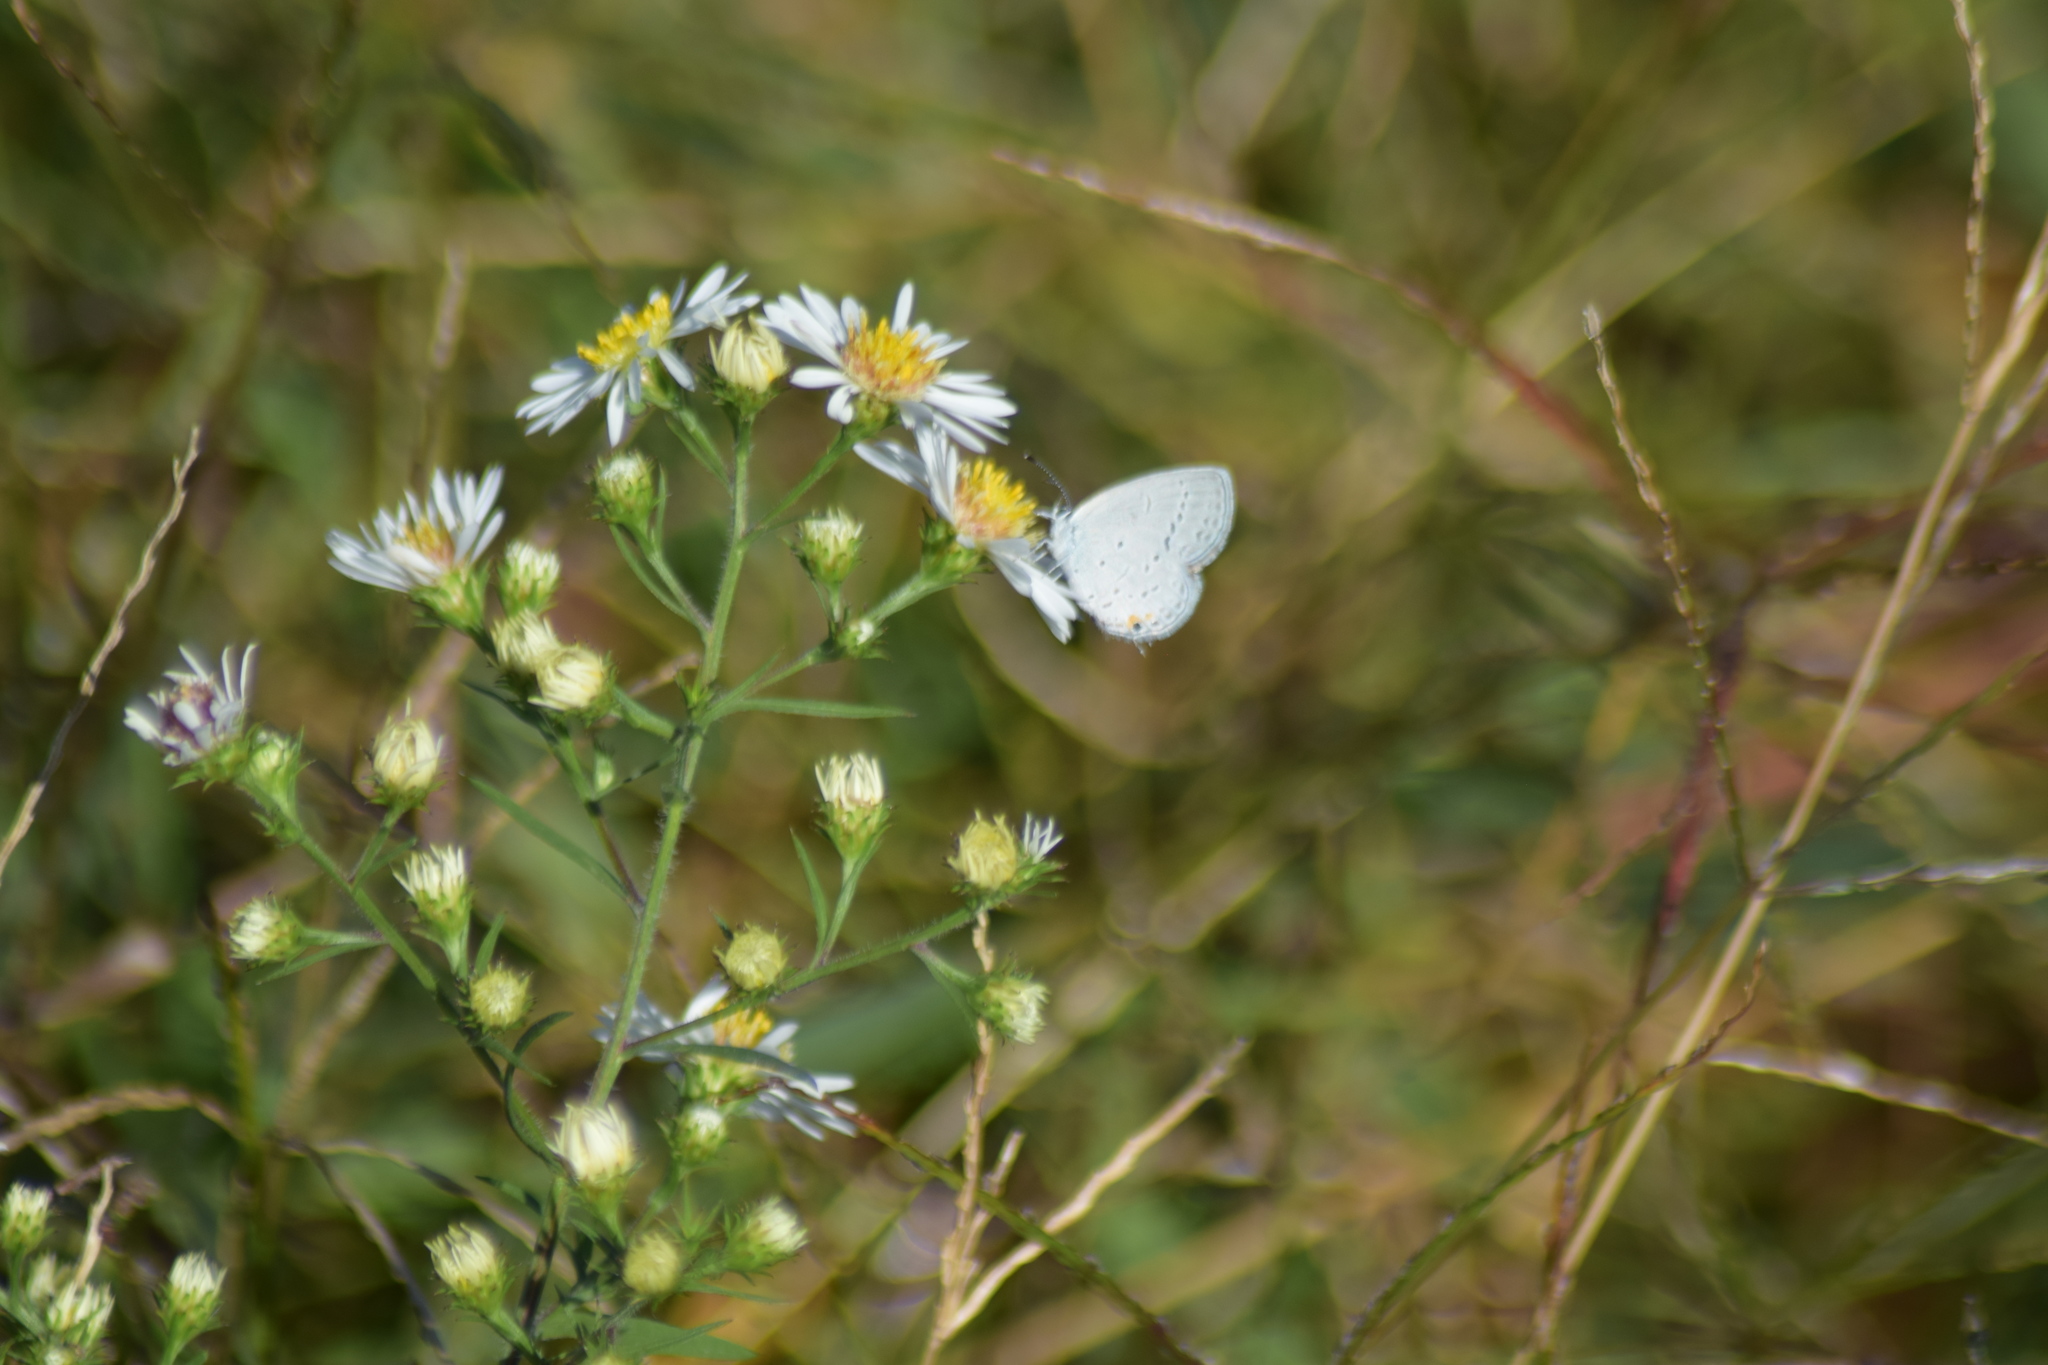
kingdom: Animalia
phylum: Arthropoda
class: Insecta
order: Lepidoptera
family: Lycaenidae
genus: Elkalyce
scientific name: Elkalyce comyntas
